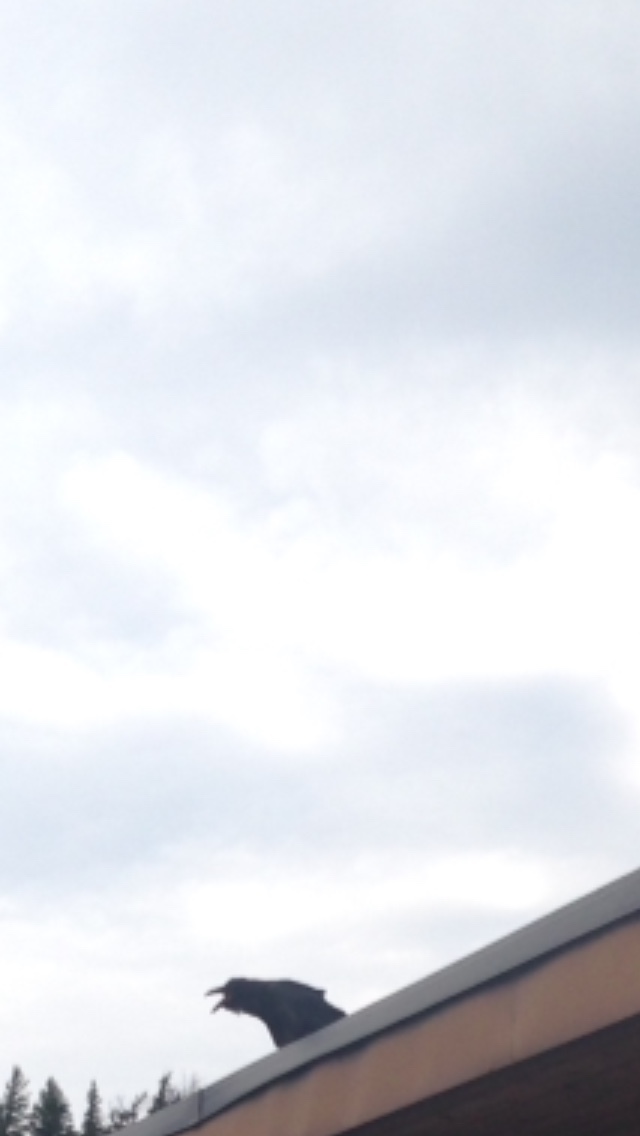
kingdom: Animalia
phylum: Chordata
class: Aves
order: Passeriformes
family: Corvidae
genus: Corvus
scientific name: Corvus corax
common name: Common raven
